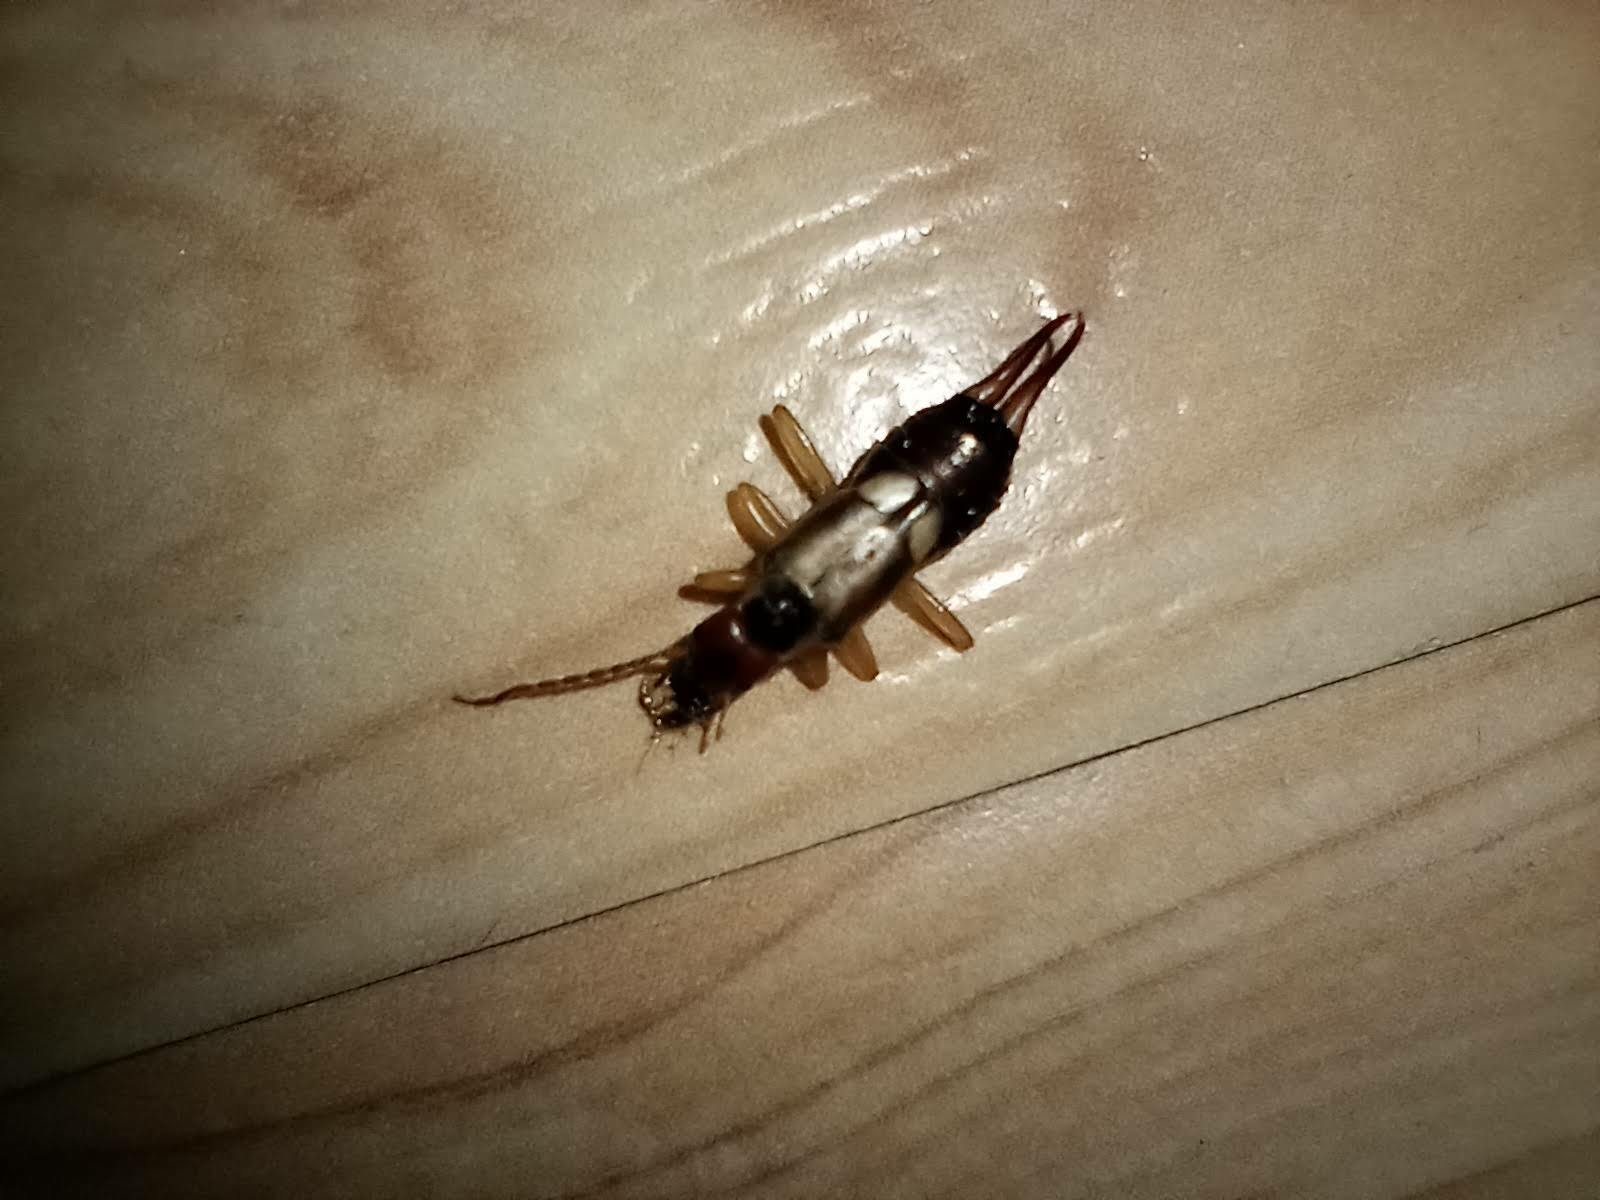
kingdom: Animalia
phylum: Arthropoda
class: Insecta
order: Dermaptera
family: Forficulidae
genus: Forficula
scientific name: Forficula dentata
